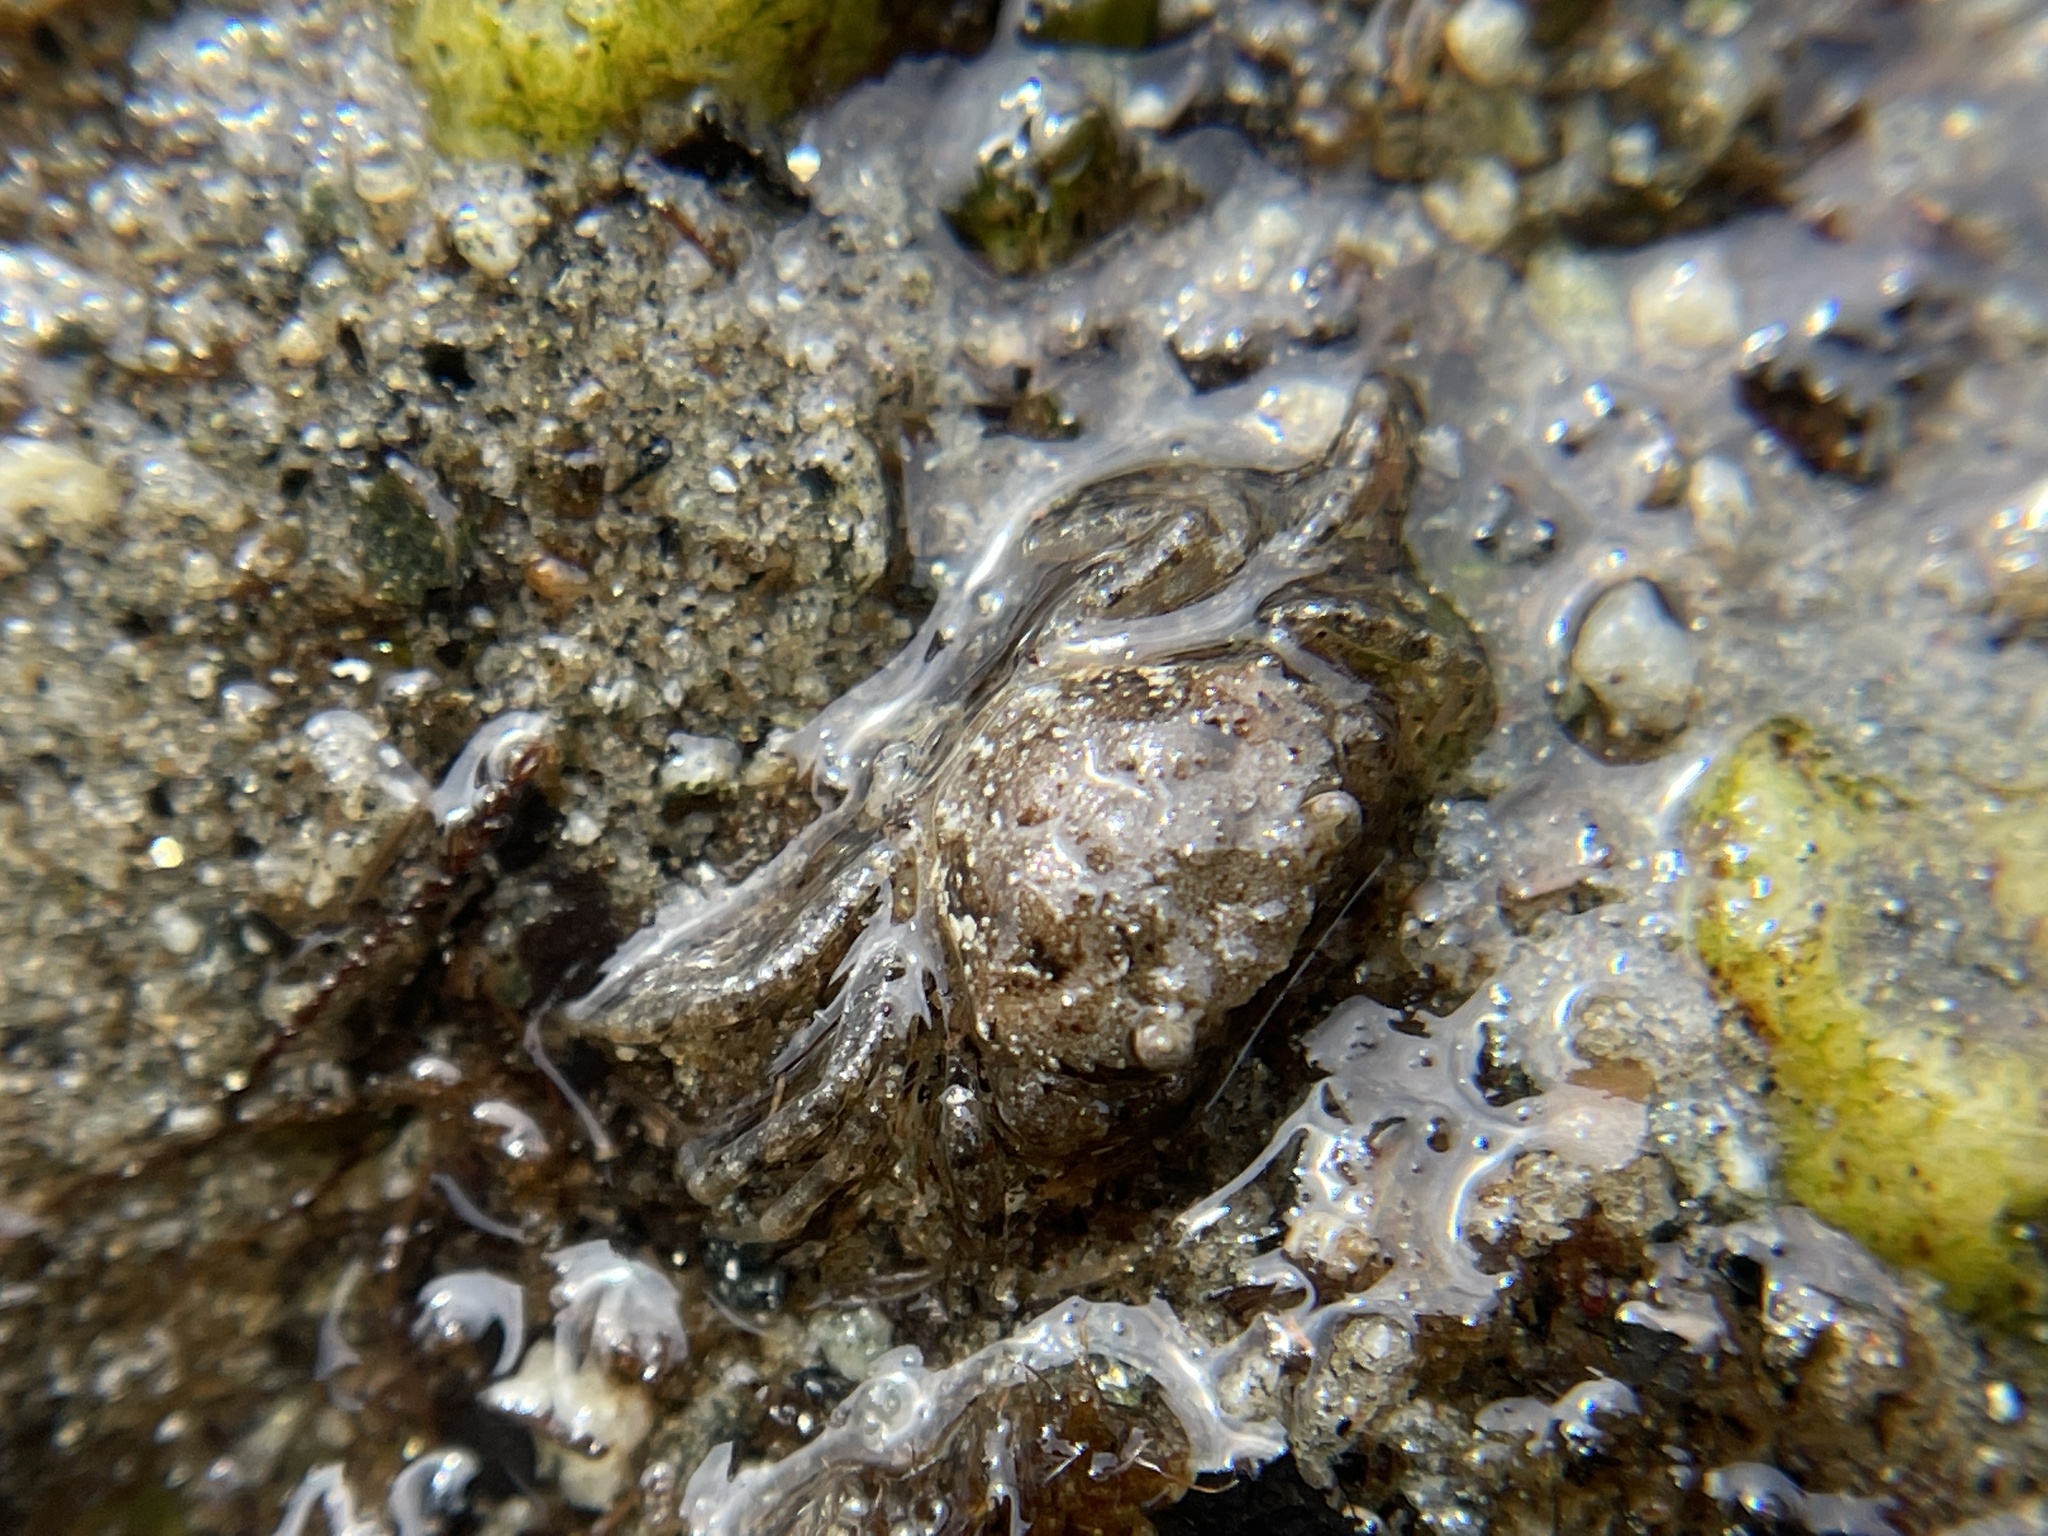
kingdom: Animalia
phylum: Arthropoda
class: Malacostraca
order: Decapoda
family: Carcinidae
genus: Carcinus
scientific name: Carcinus maenas
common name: European green crab
